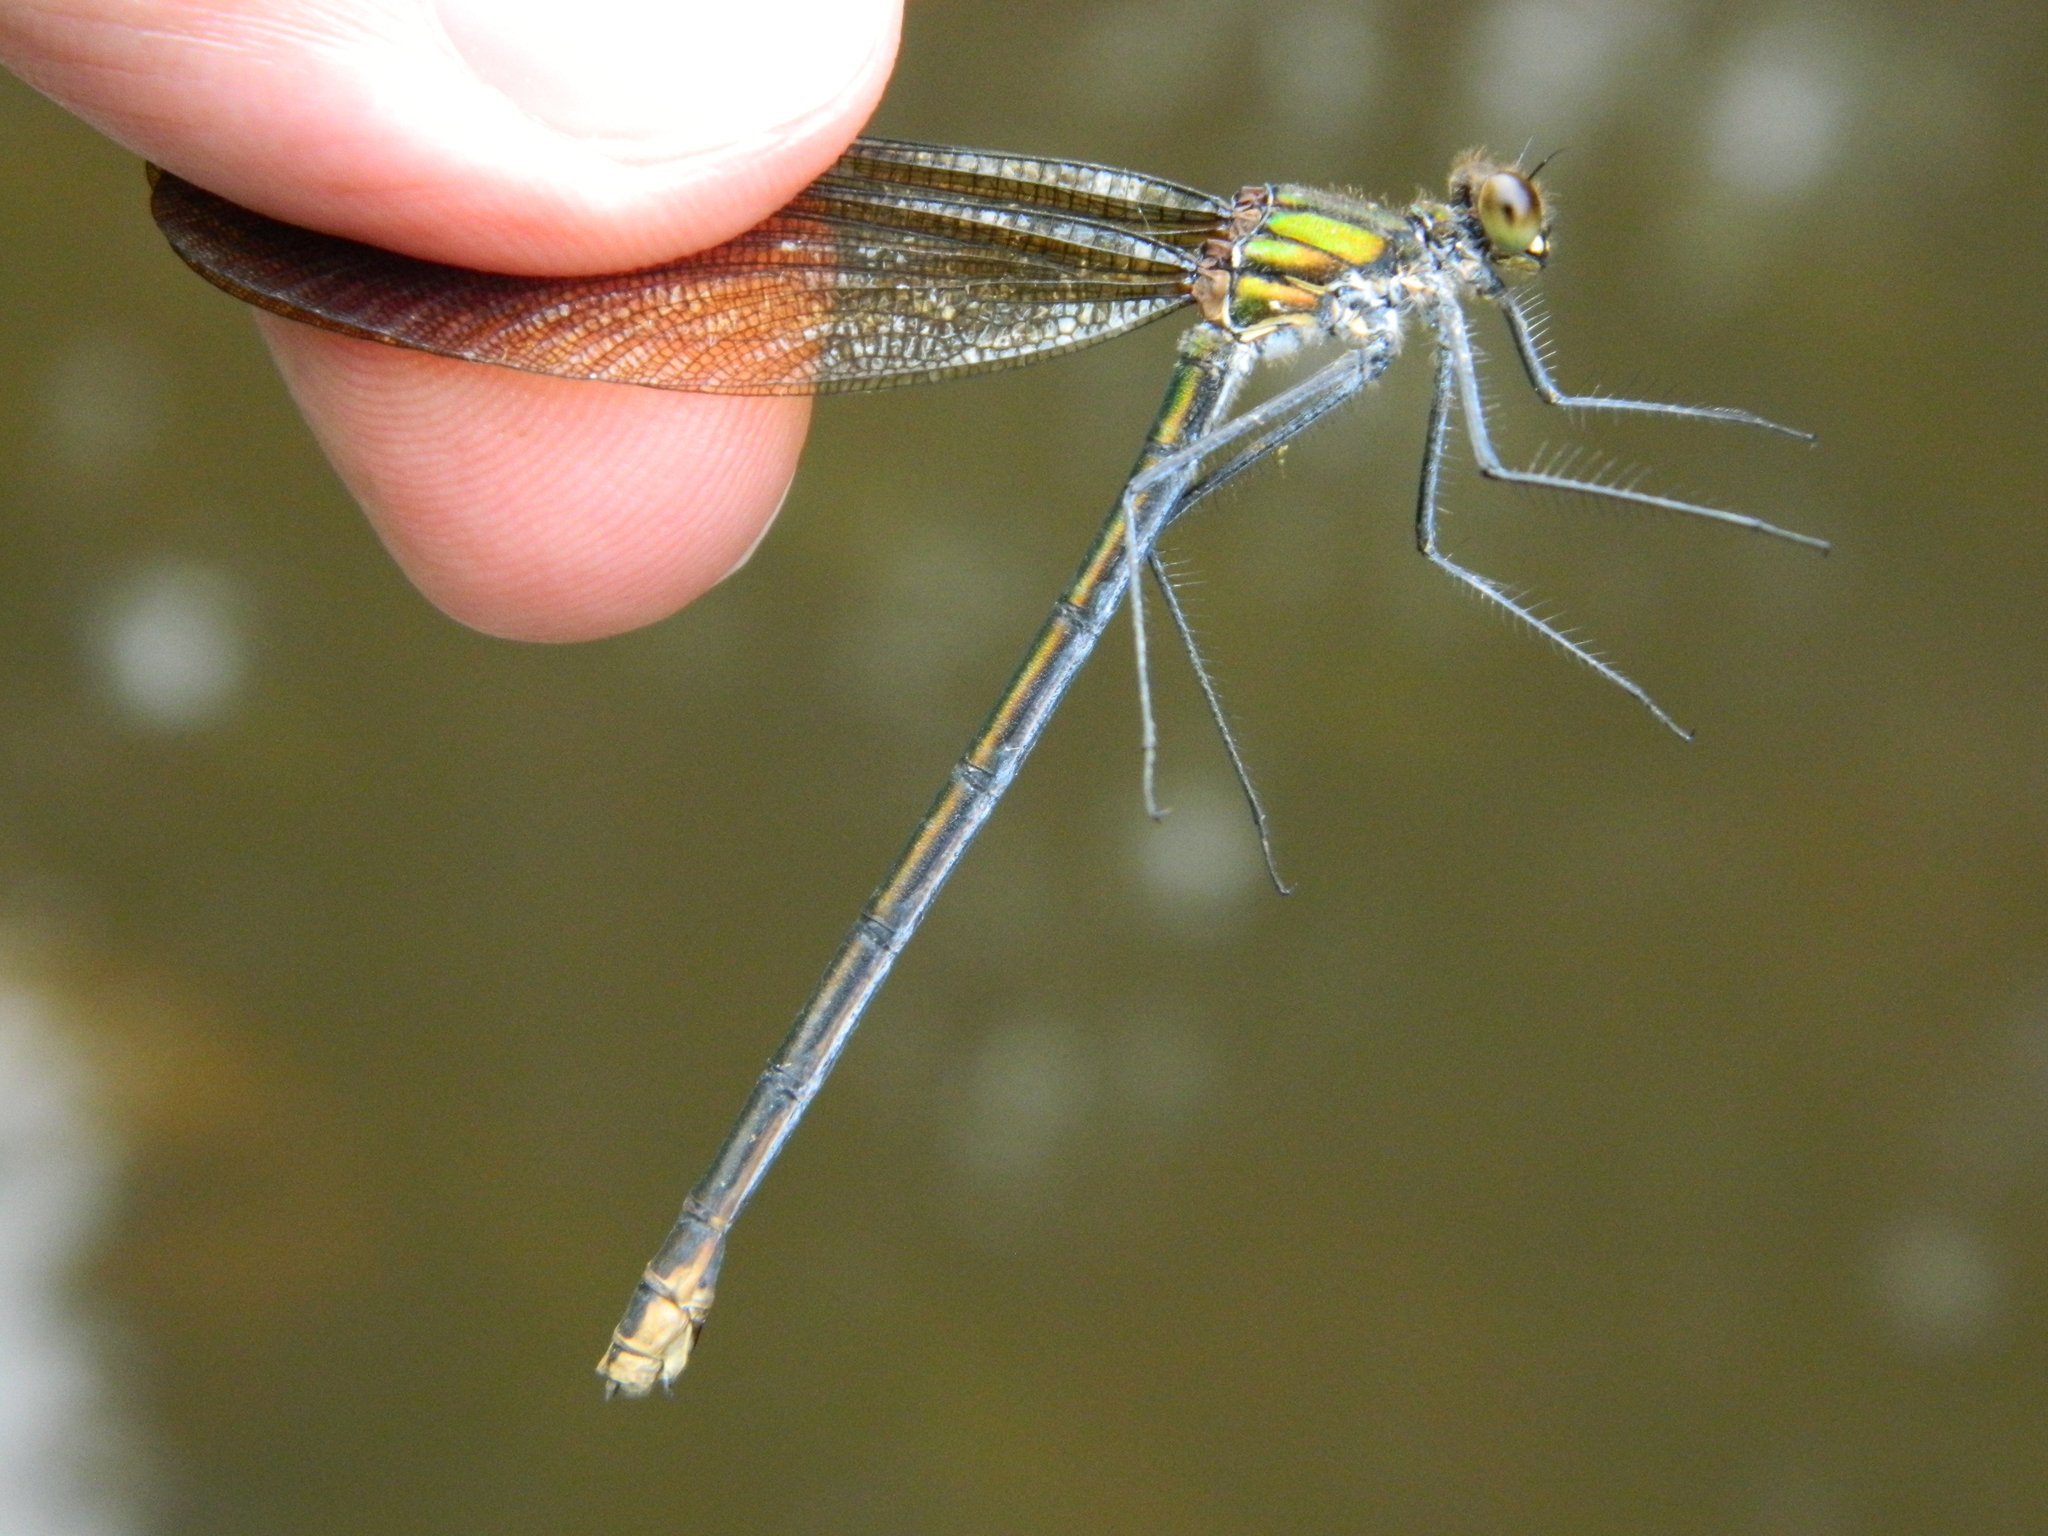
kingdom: Animalia
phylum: Arthropoda
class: Insecta
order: Odonata
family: Calopterygidae
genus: Calopteryx
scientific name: Calopteryx aequabilis
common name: River jewelwing
